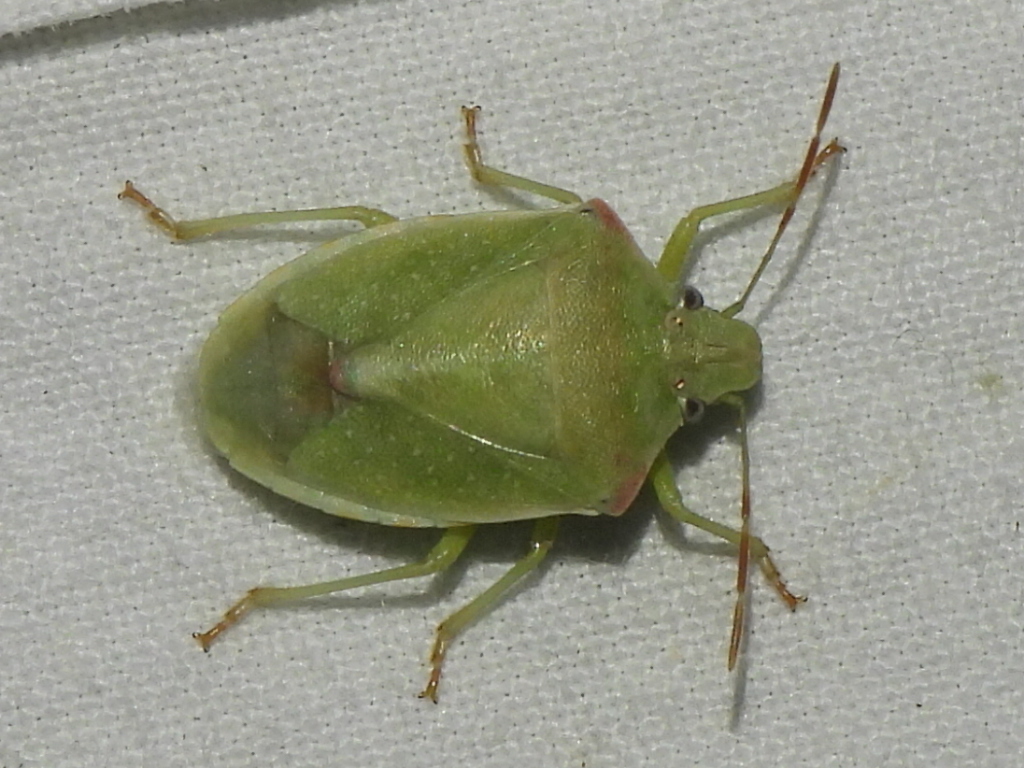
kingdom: Animalia
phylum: Arthropoda
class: Insecta
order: Hemiptera
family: Pentatomidae
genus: Thyanta
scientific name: Thyanta custator
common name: Stink bug
